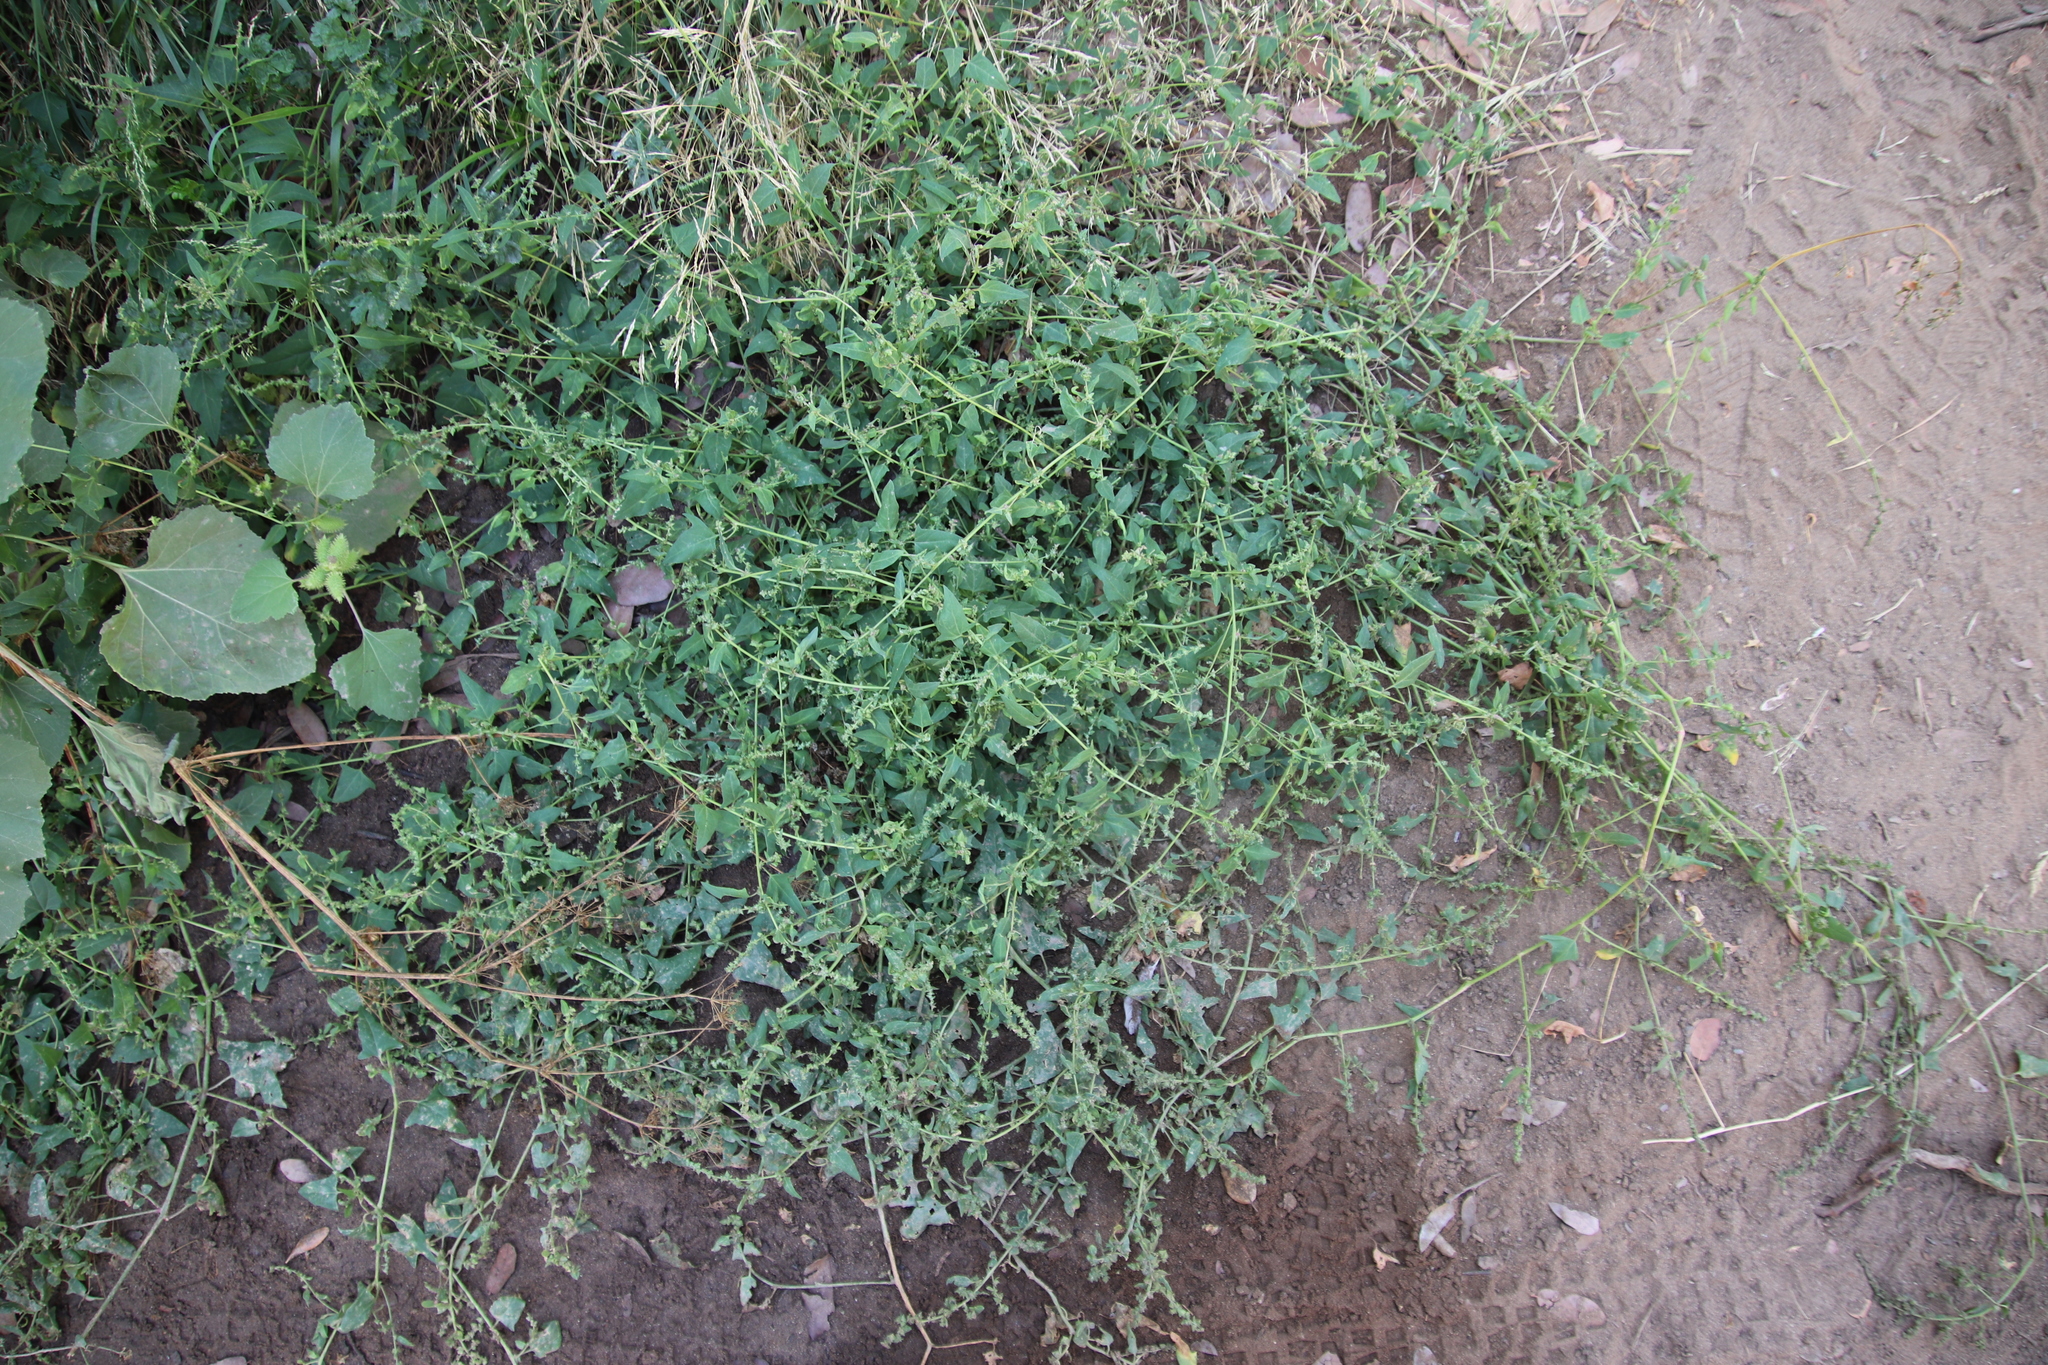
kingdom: Plantae
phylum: Tracheophyta
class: Magnoliopsida
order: Caryophyllales
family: Amaranthaceae
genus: Atriplex
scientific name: Atriplex prostrata
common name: Spear-leaved orache
